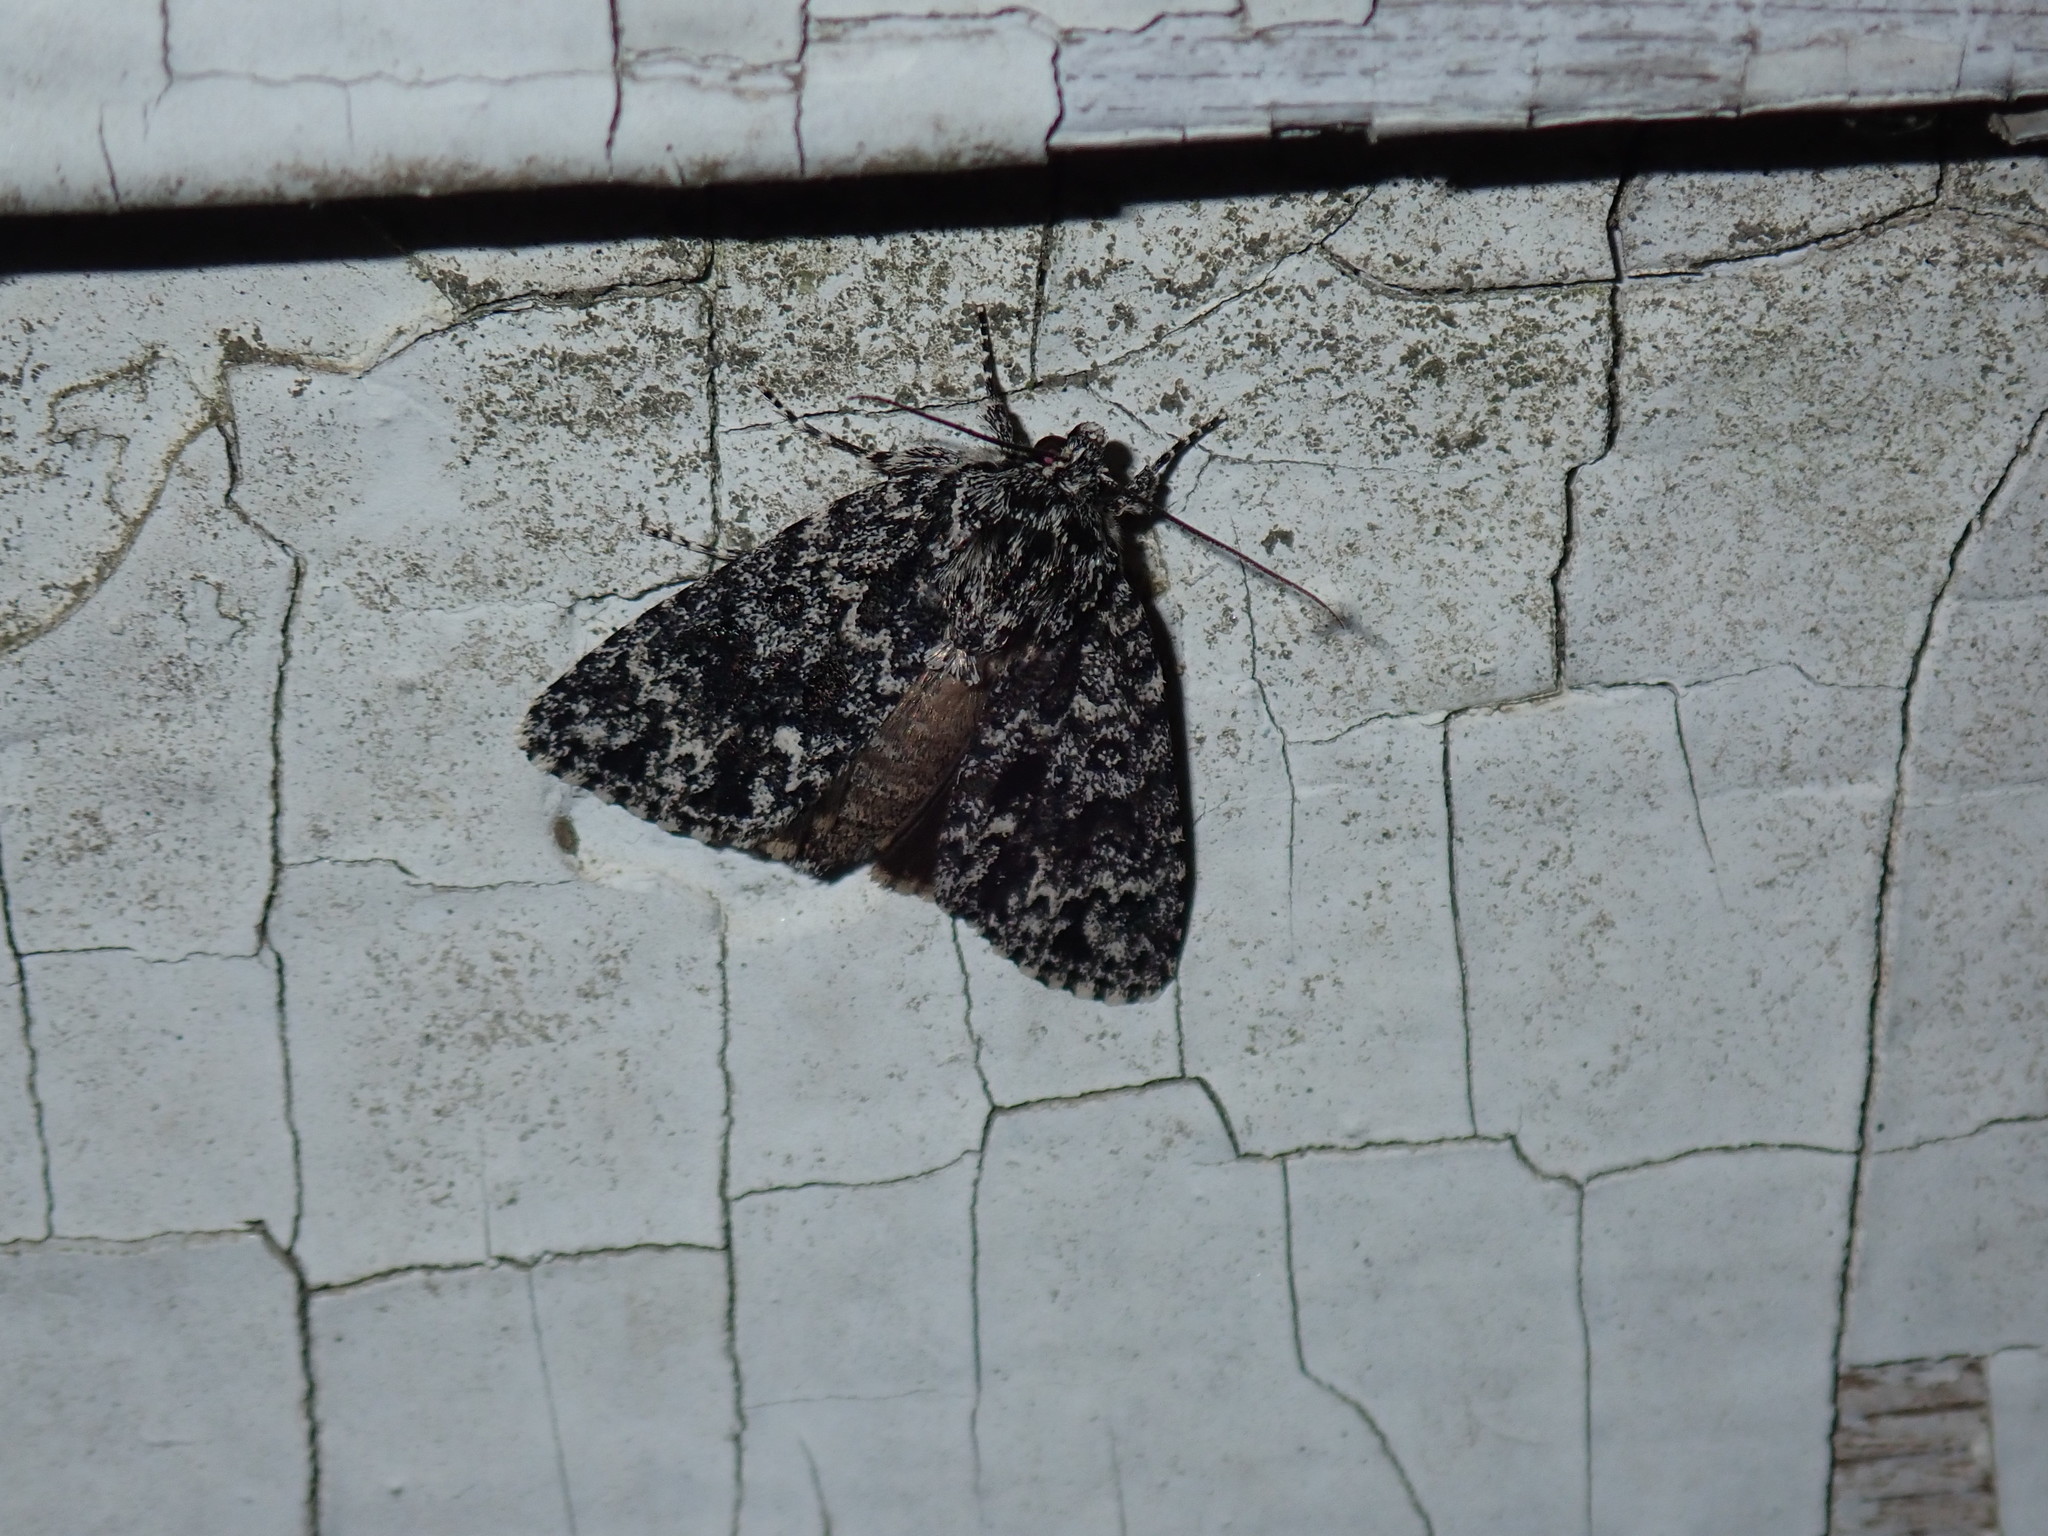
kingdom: Animalia
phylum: Arthropoda
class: Insecta
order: Lepidoptera
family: Noctuidae
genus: Acronicta
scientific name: Acronicta noctivaga
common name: Night-wandering dagger
